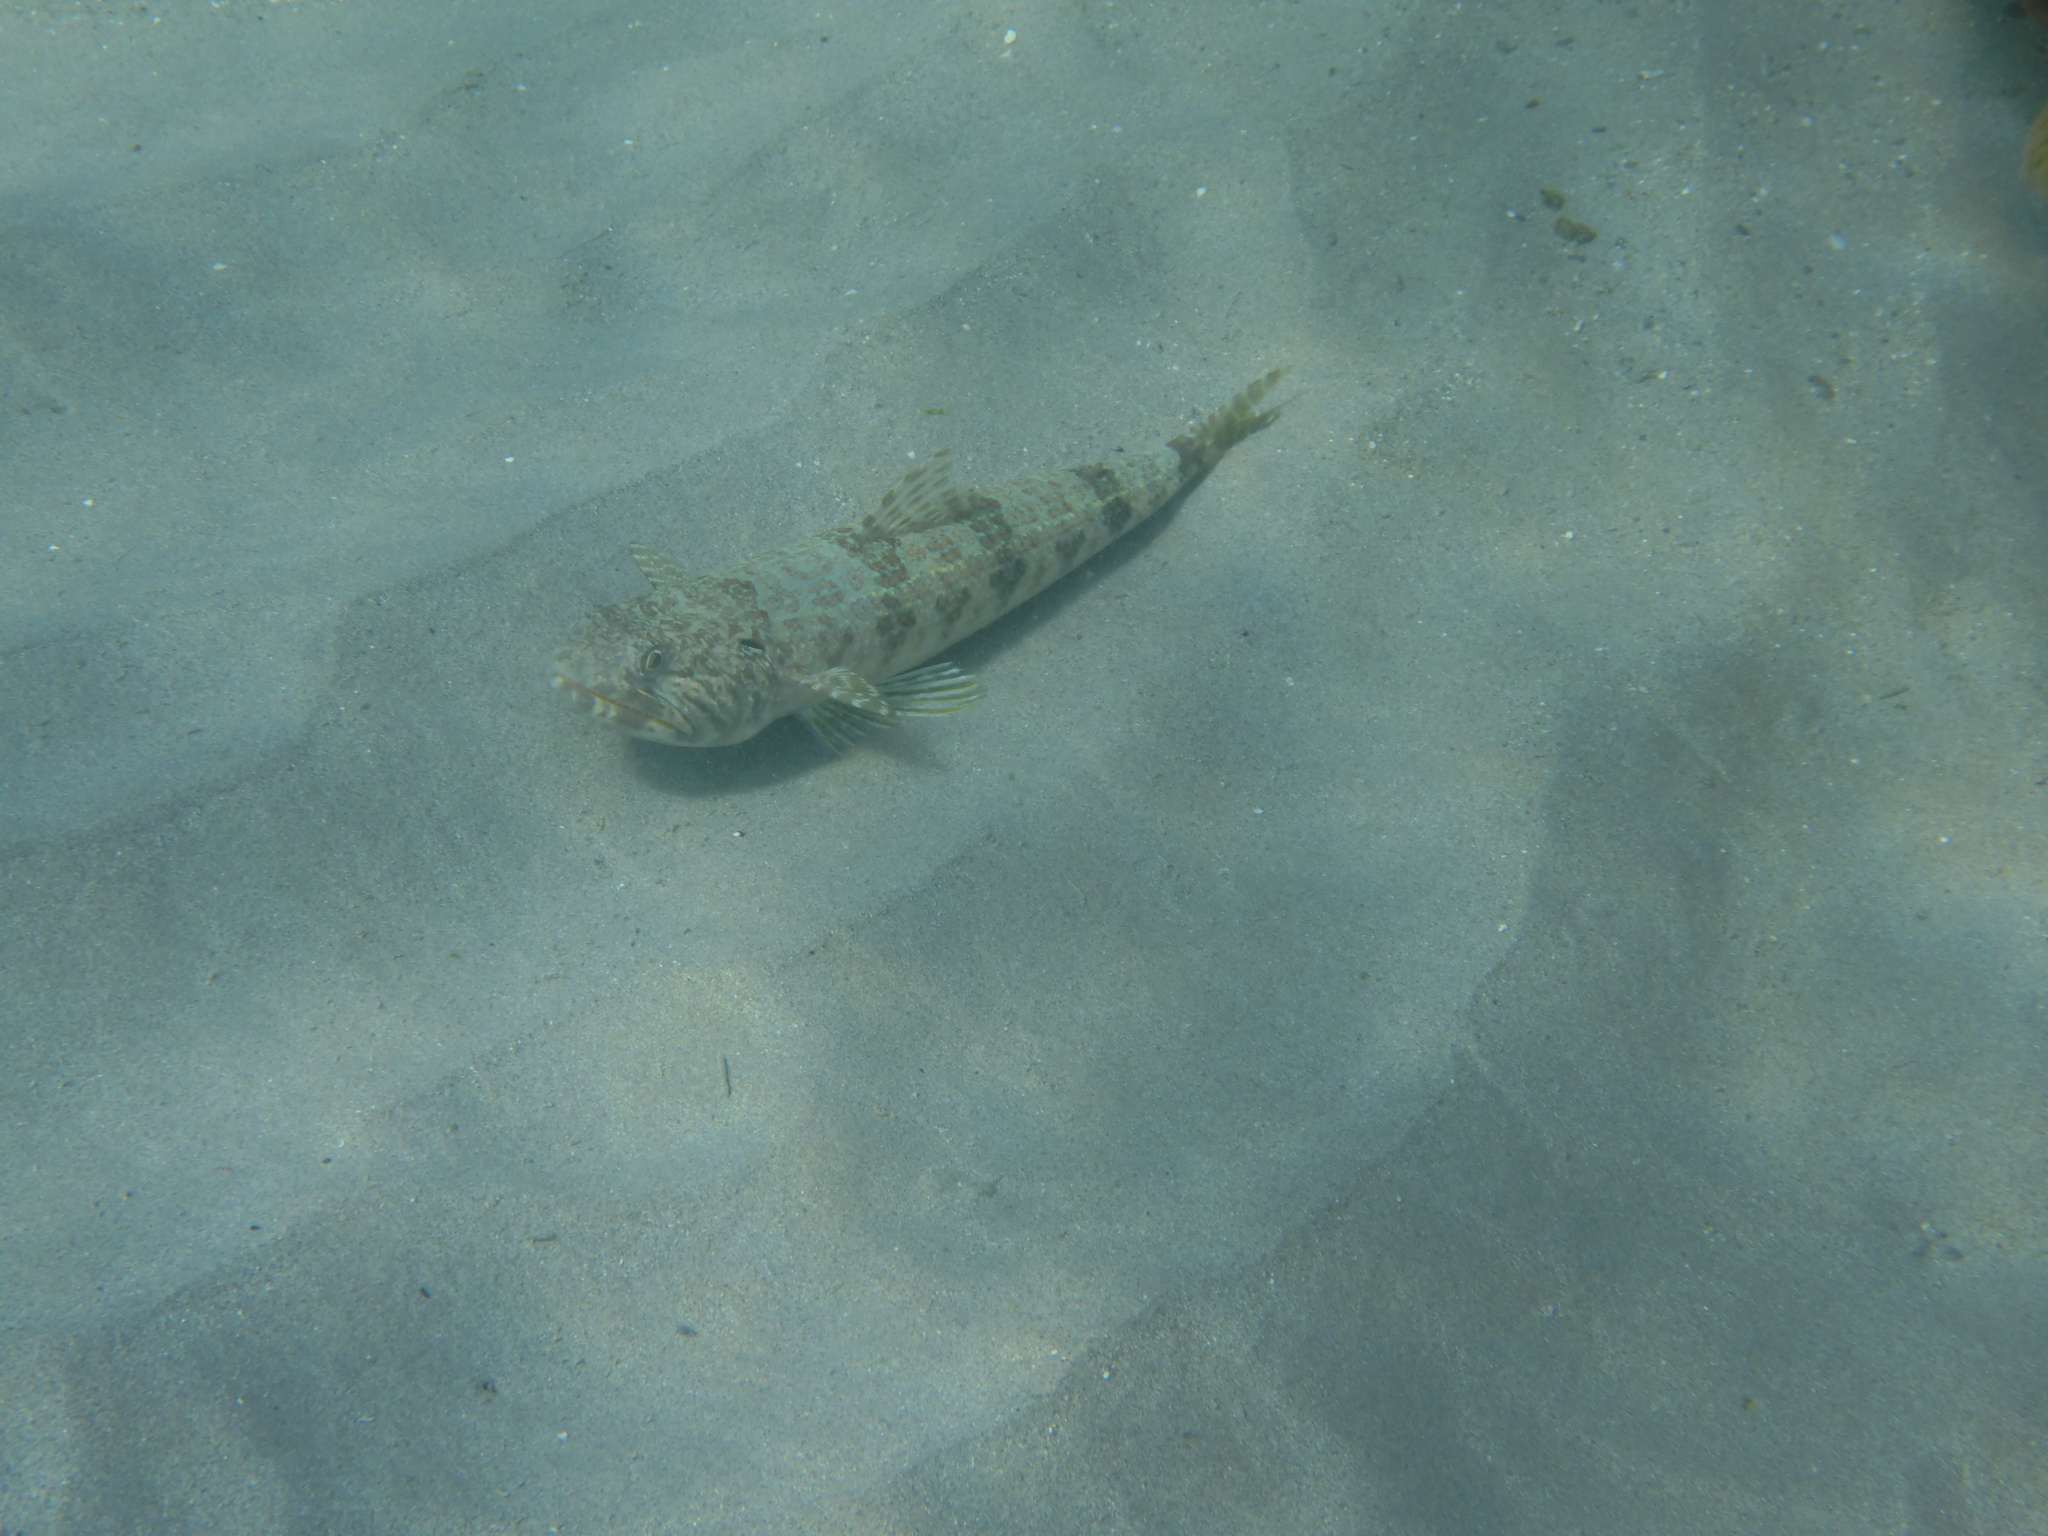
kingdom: Animalia
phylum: Chordata
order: Aulopiformes
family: Synodontidae
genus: Synodus
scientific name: Synodus intermedius
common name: Sand diver
